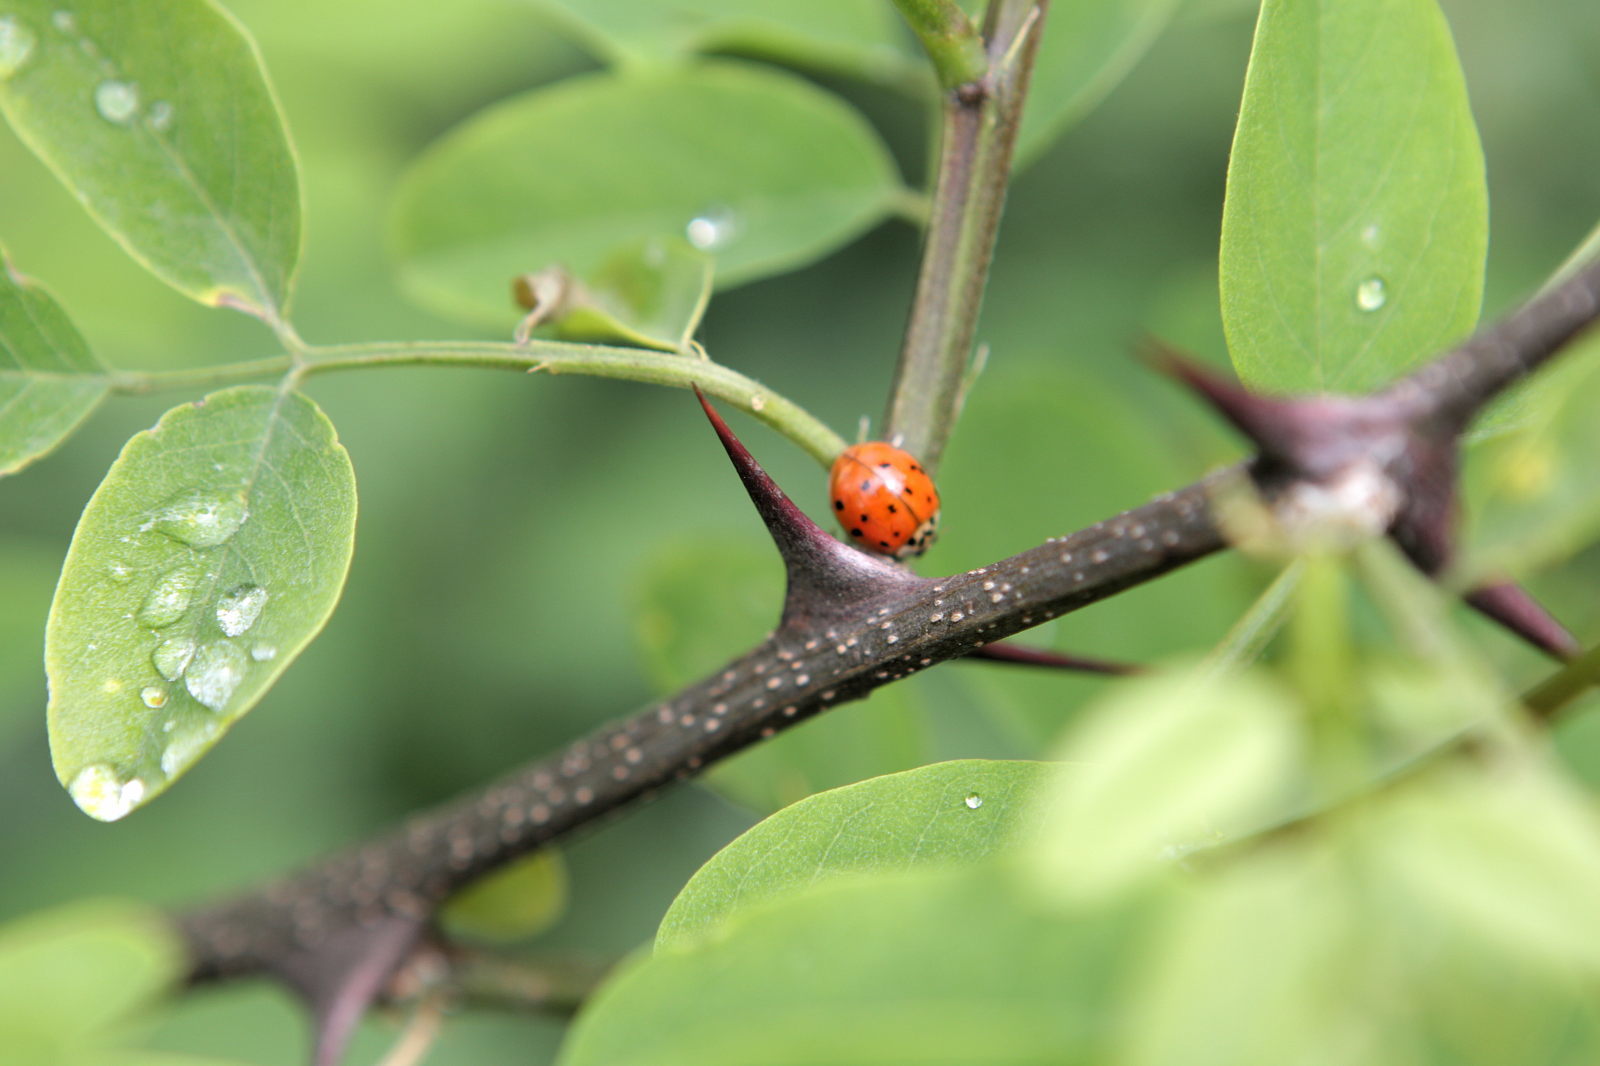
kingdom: Animalia
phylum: Arthropoda
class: Insecta
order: Coleoptera
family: Coccinellidae
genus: Harmonia
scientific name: Harmonia axyridis
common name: Harlequin ladybird
